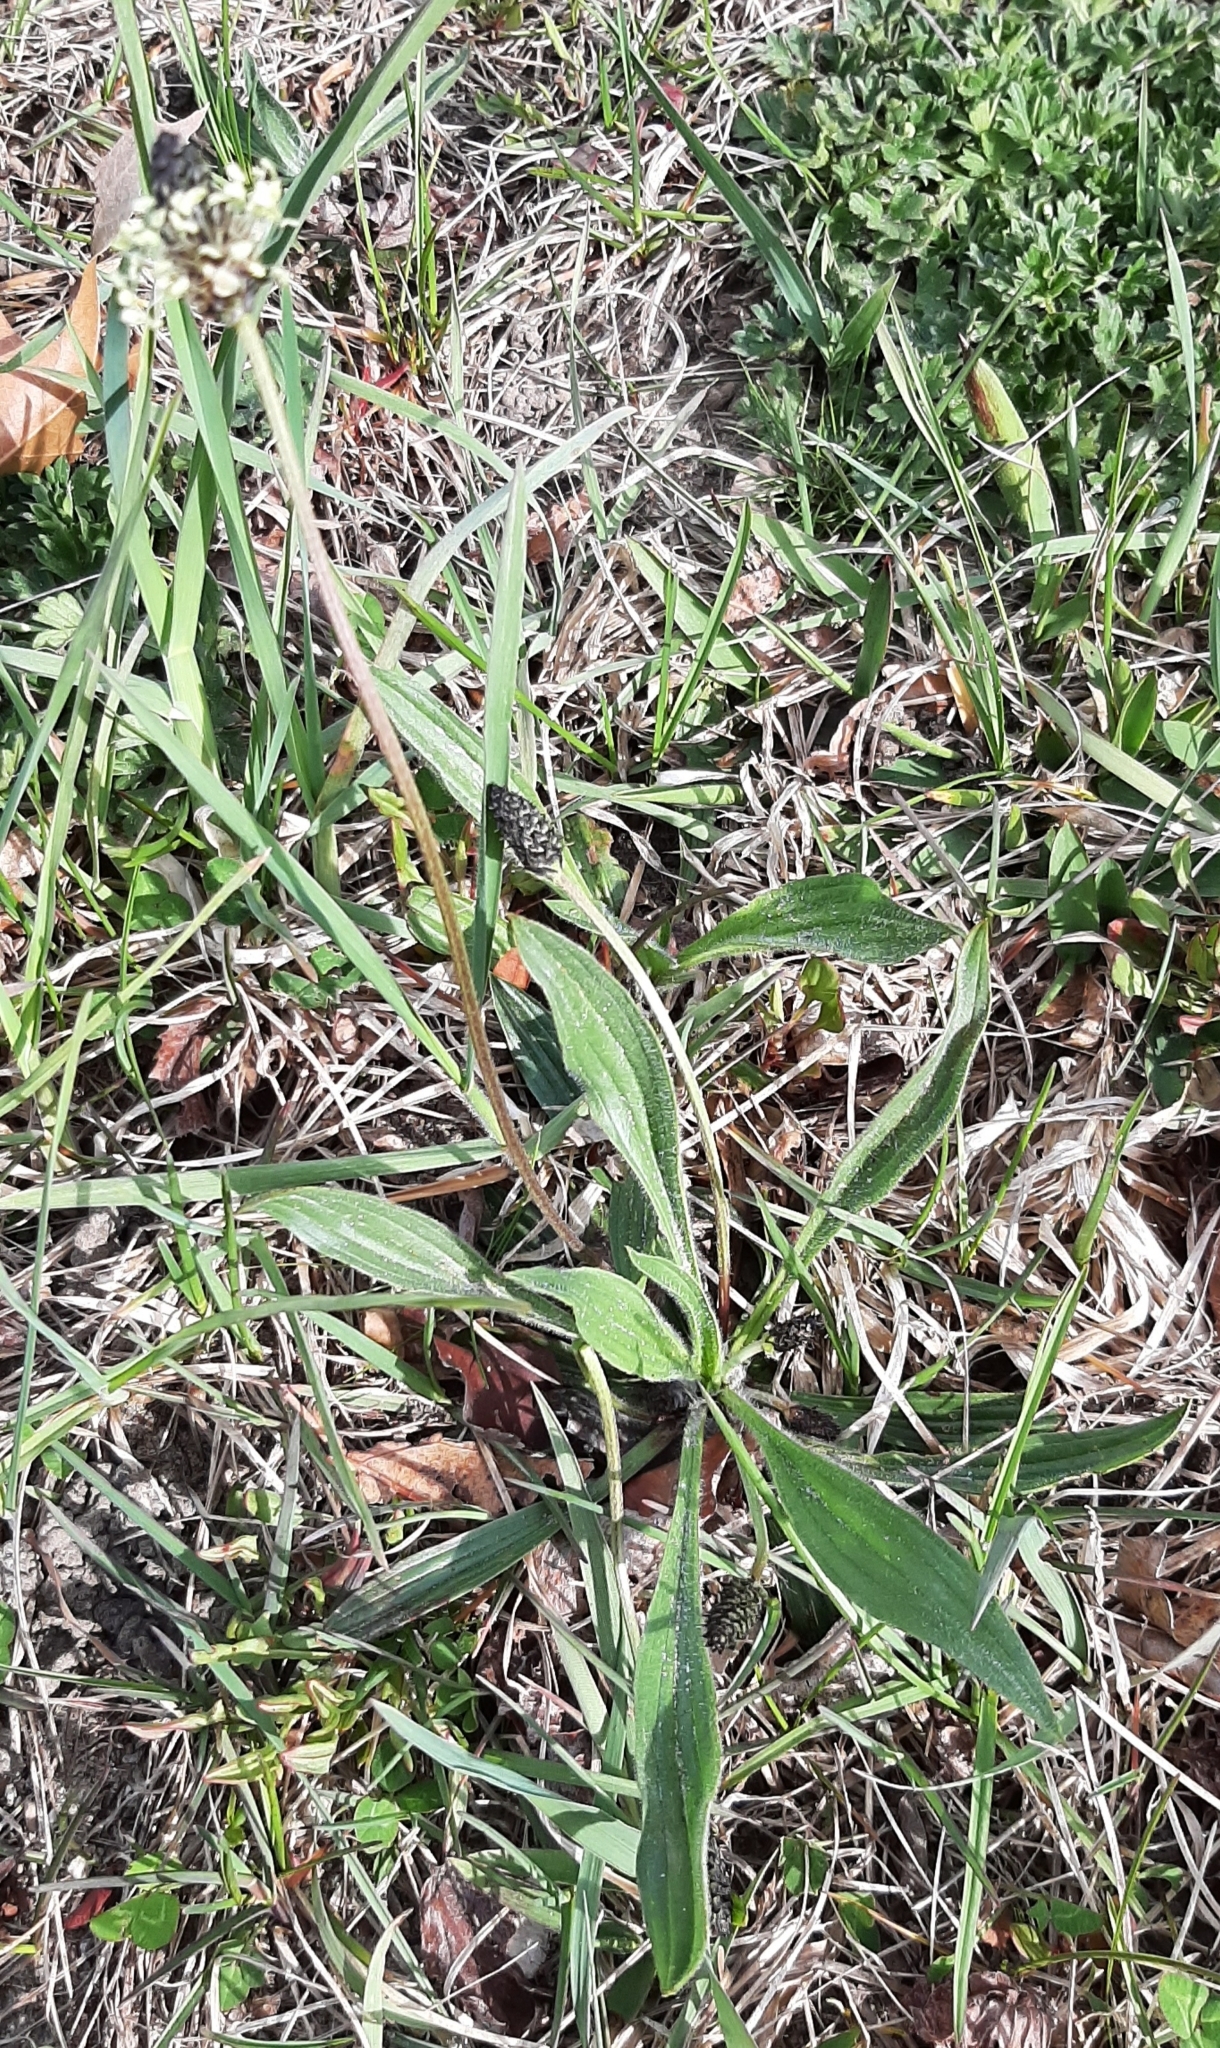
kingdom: Plantae
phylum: Tracheophyta
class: Magnoliopsida
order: Lamiales
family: Plantaginaceae
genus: Plantago
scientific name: Plantago lanceolata
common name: Ribwort plantain
